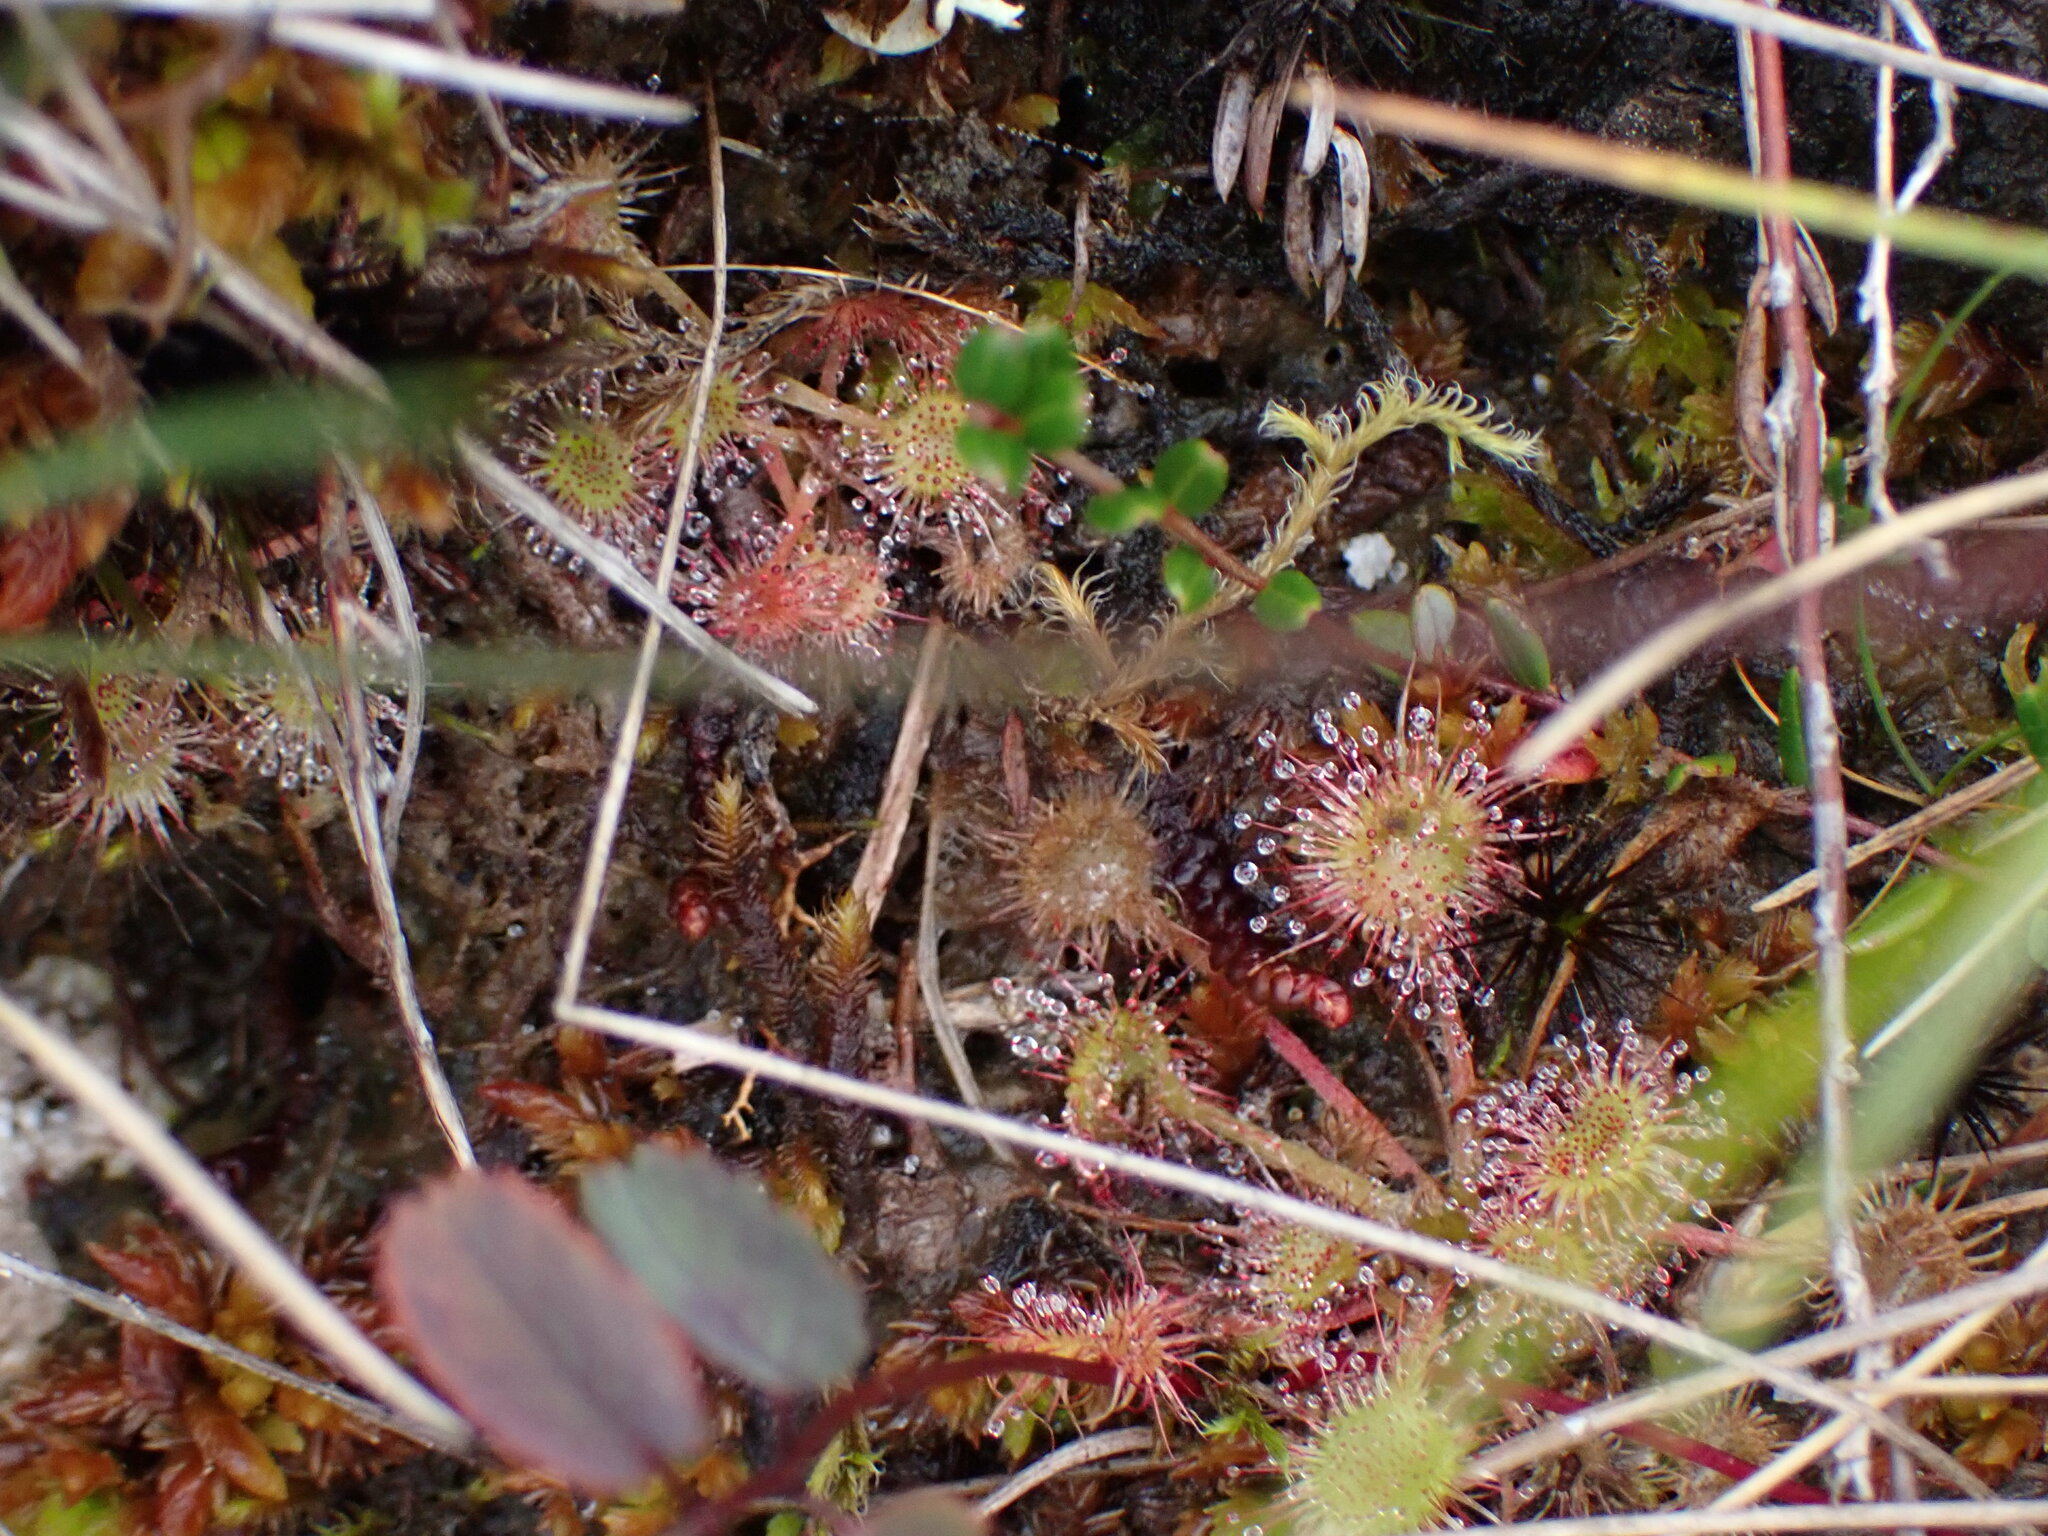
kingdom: Plantae
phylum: Tracheophyta
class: Magnoliopsida
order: Caryophyllales
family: Droseraceae
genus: Drosera
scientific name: Drosera rotundifolia
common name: Round-leaved sundew
